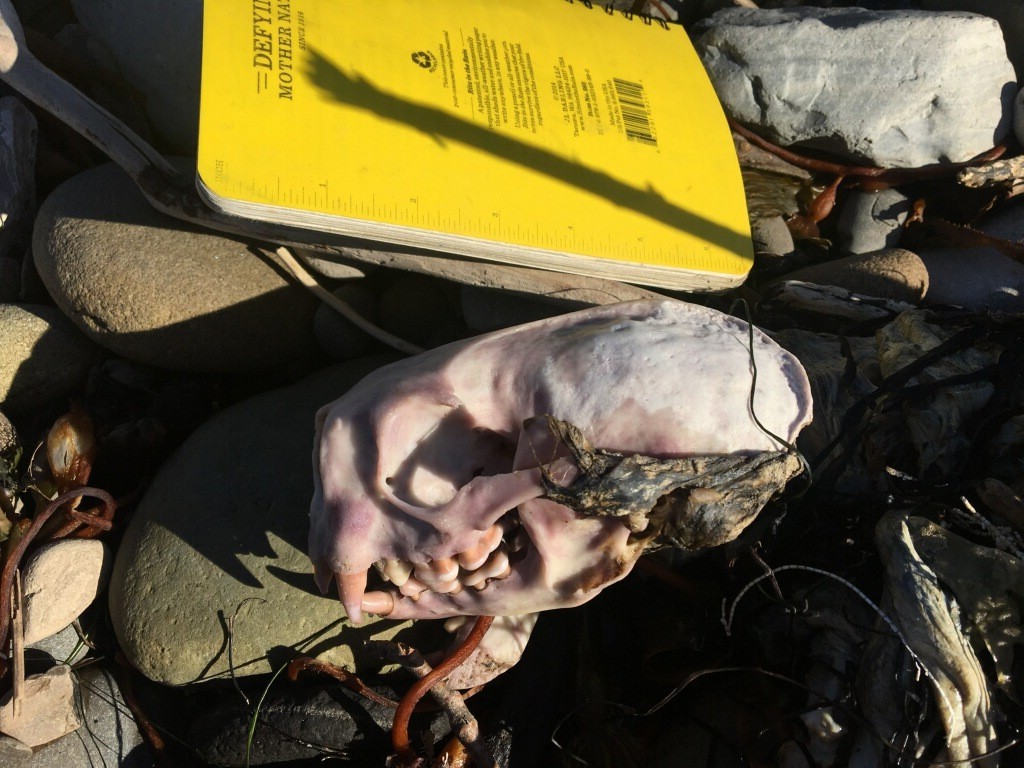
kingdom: Animalia
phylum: Chordata
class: Mammalia
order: Carnivora
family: Mustelidae
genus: Enhydra
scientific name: Enhydra lutris
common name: Sea otter
